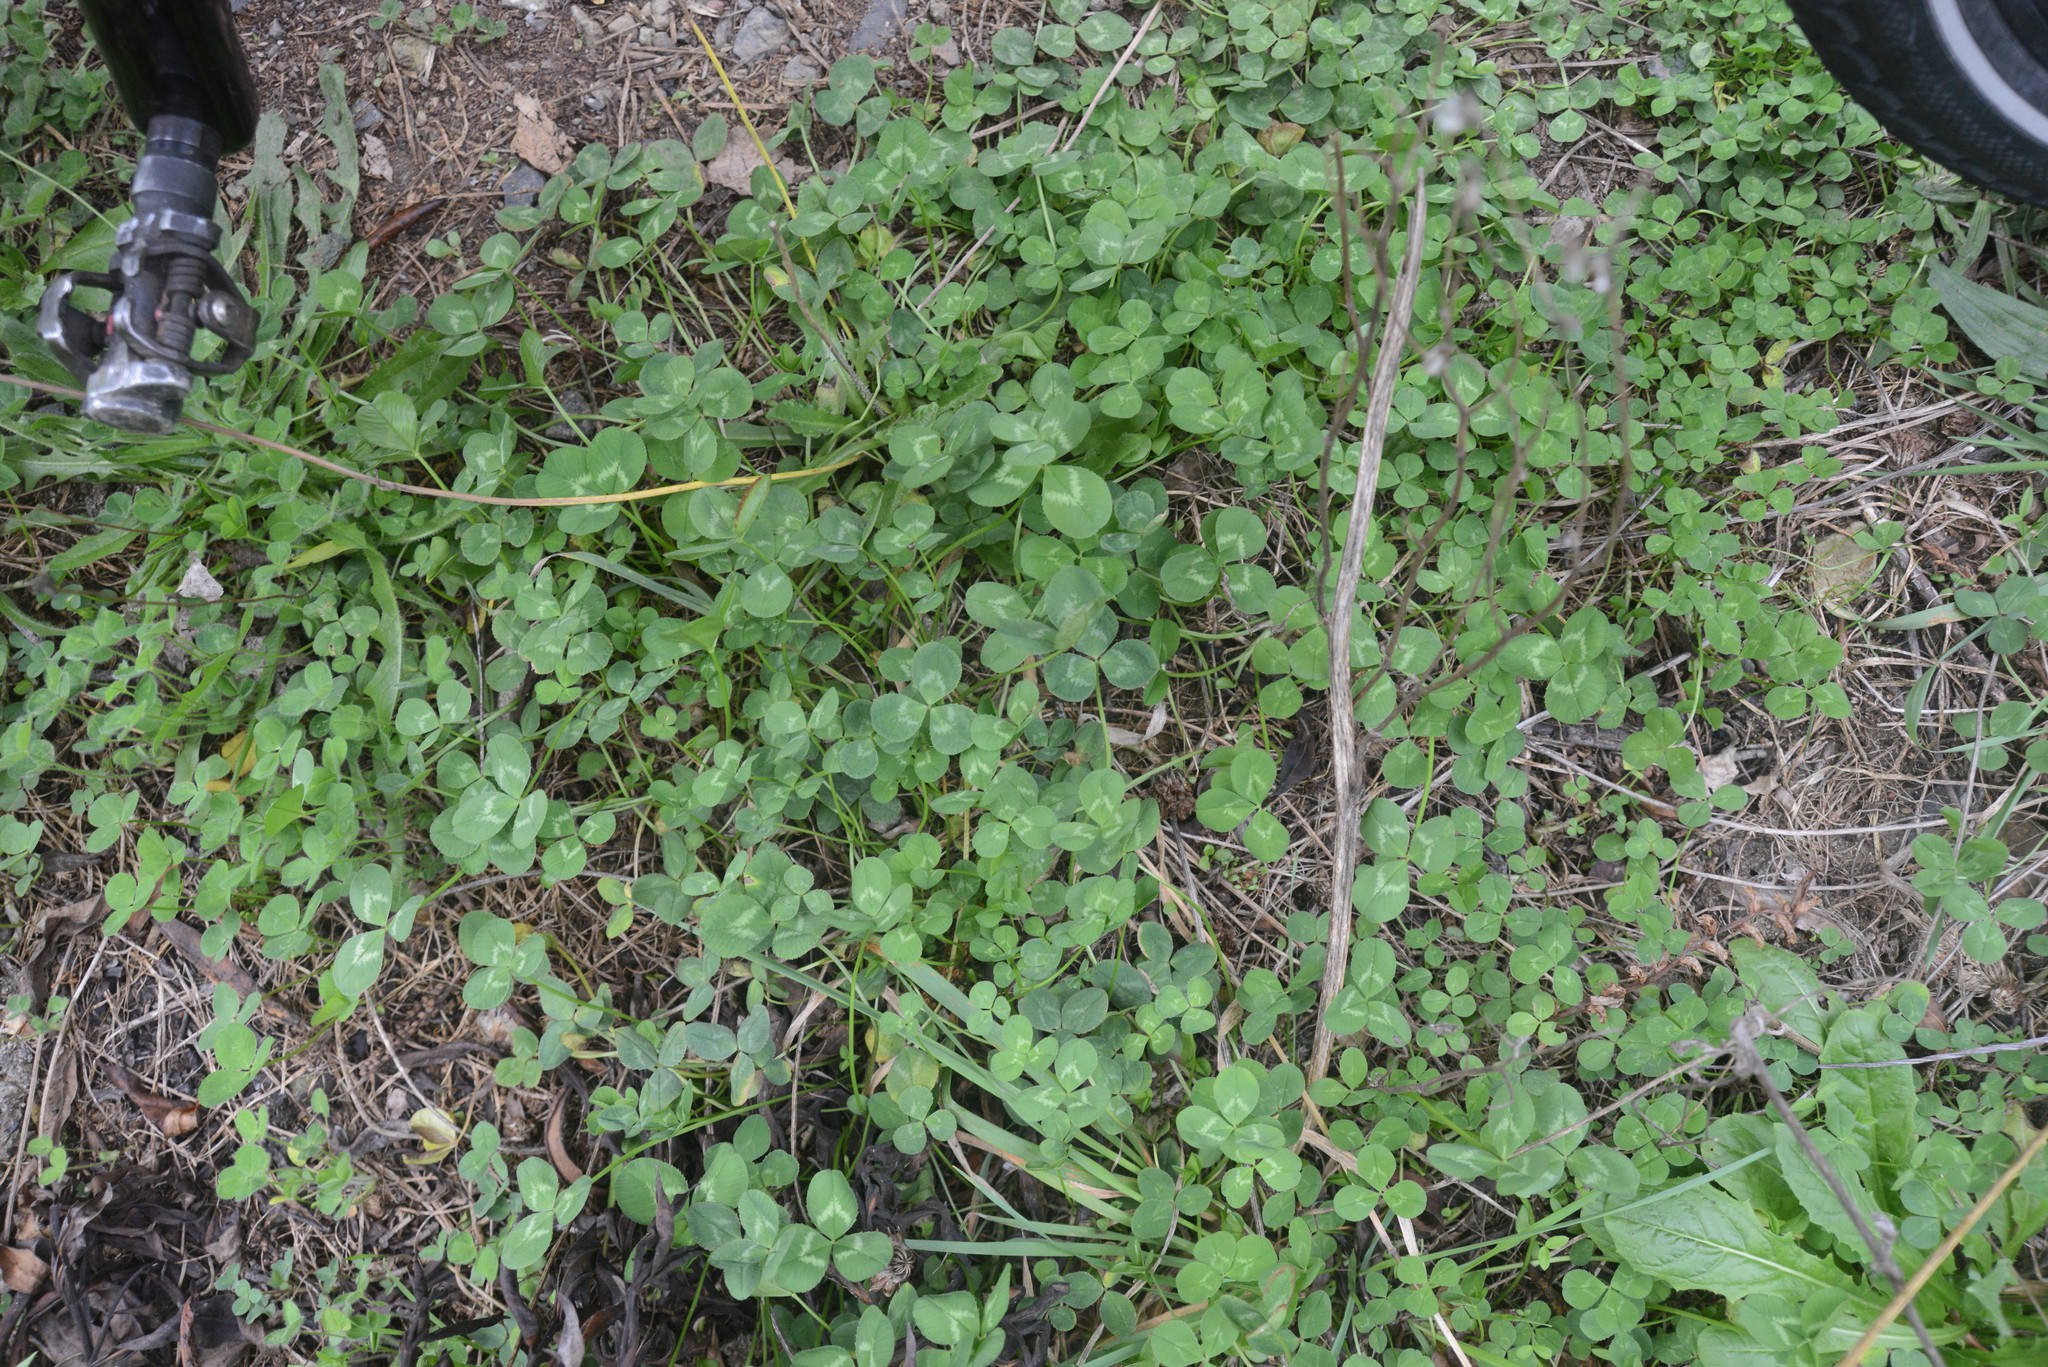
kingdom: Plantae
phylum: Tracheophyta
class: Magnoliopsida
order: Fabales
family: Fabaceae
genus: Trifolium
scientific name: Trifolium repens
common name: White clover
